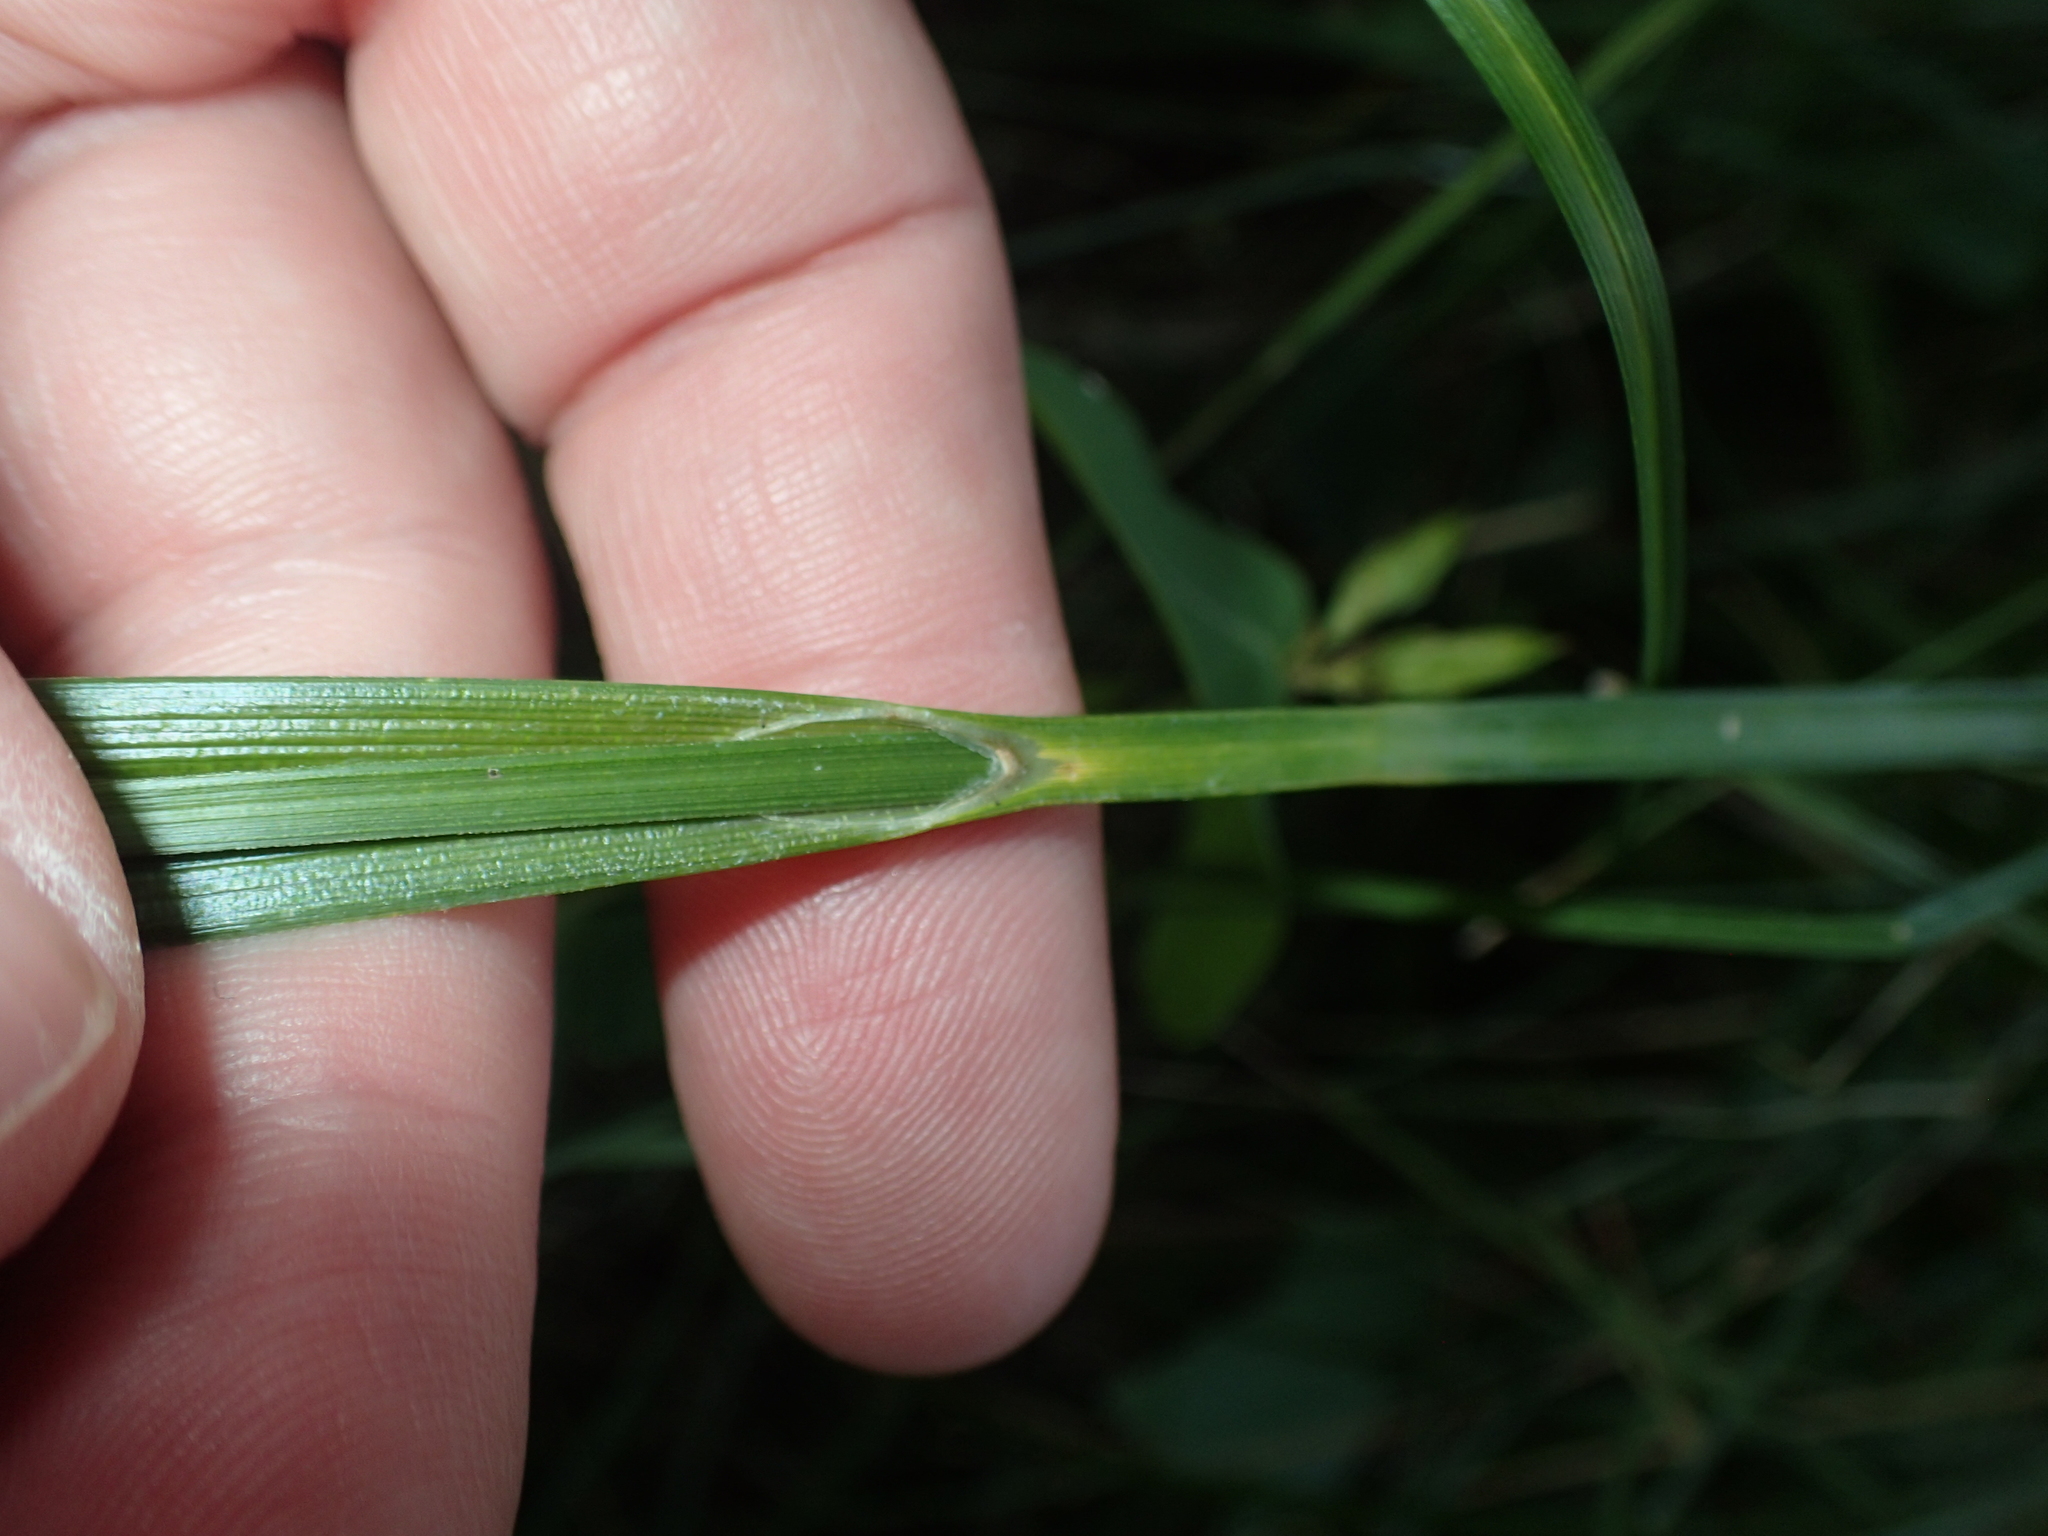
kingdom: Plantae
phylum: Tracheophyta
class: Liliopsida
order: Poales
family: Cyperaceae
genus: Carex
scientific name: Carex comosa
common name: Bristly sedge
